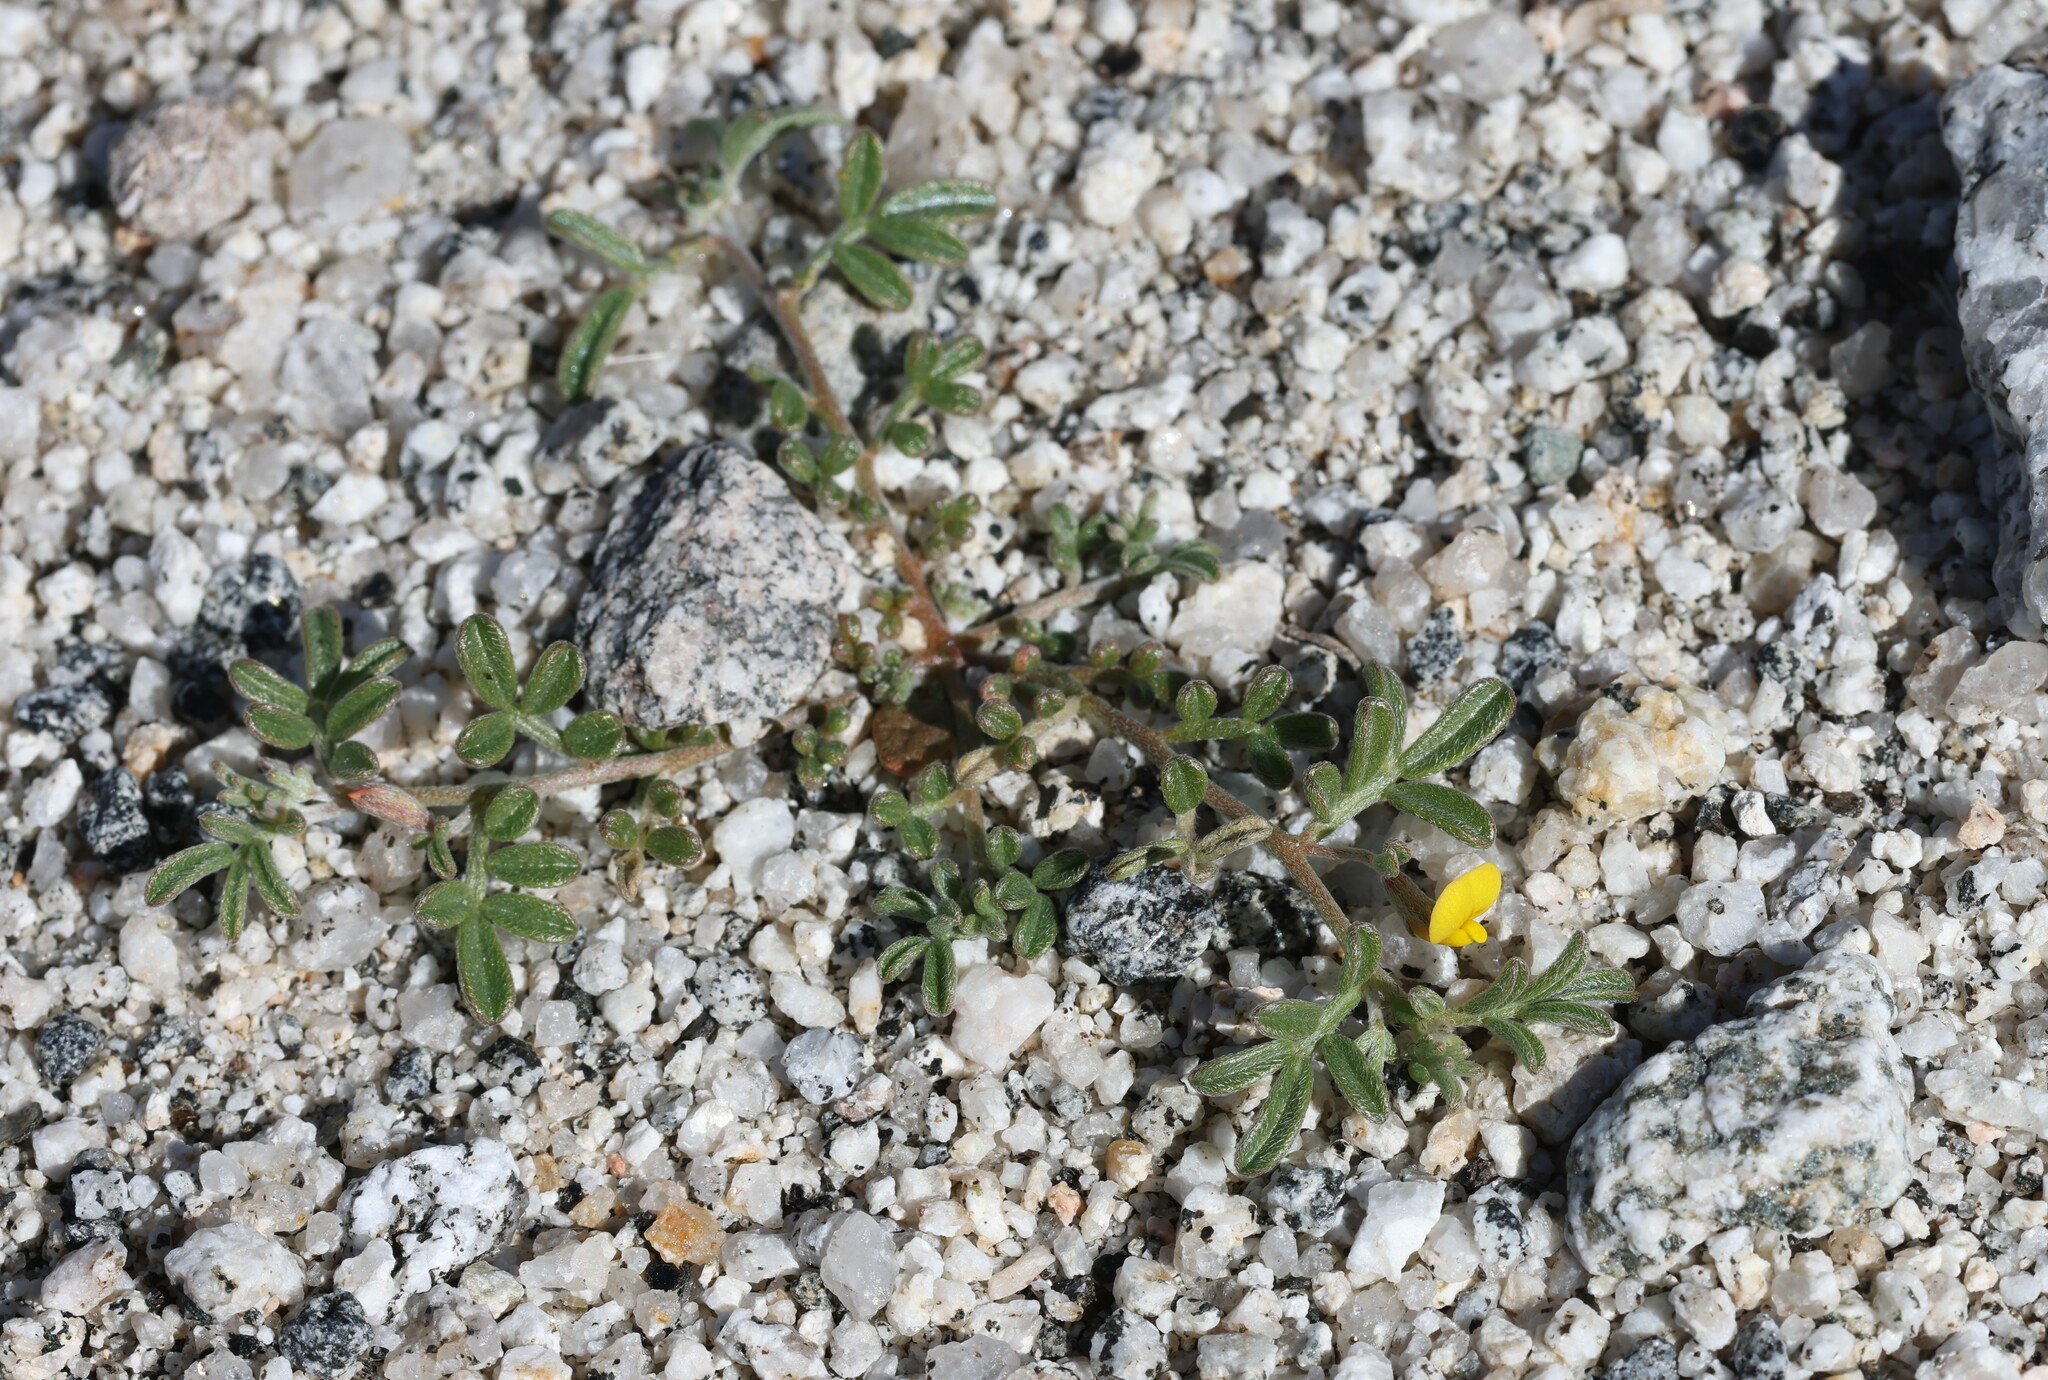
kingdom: Plantae
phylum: Tracheophyta
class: Magnoliopsida
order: Fabales
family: Fabaceae
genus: Acmispon
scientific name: Acmispon strigosus
